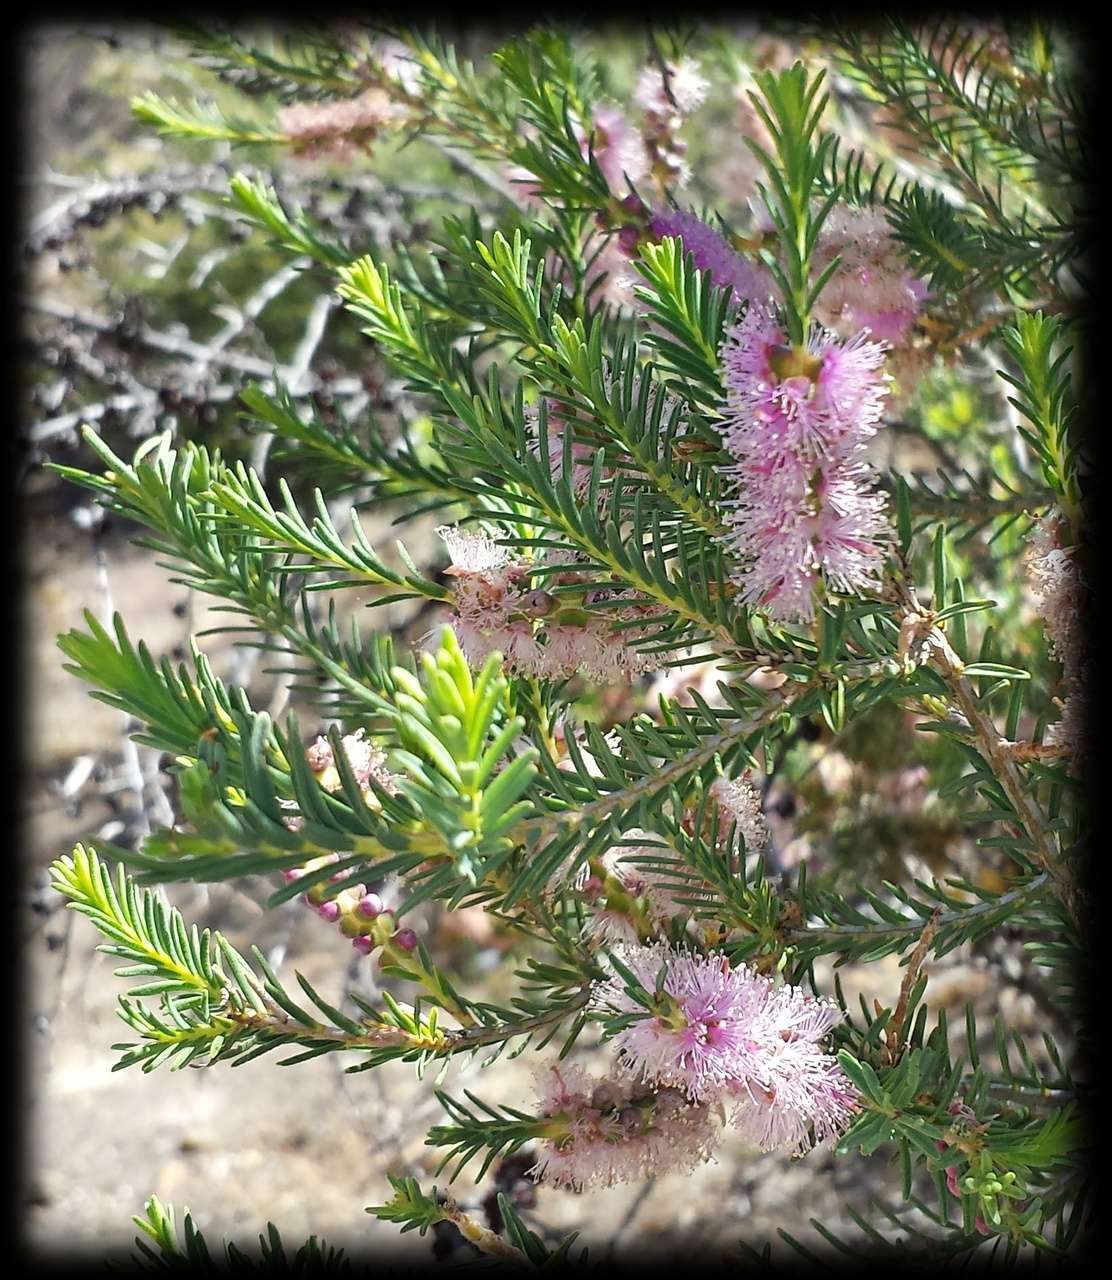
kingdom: Plantae
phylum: Tracheophyta
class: Magnoliopsida
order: Myrtales
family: Myrtaceae
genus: Melaleuca
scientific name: Melaleuca decussata
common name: Cross-leaf honey myrtle
